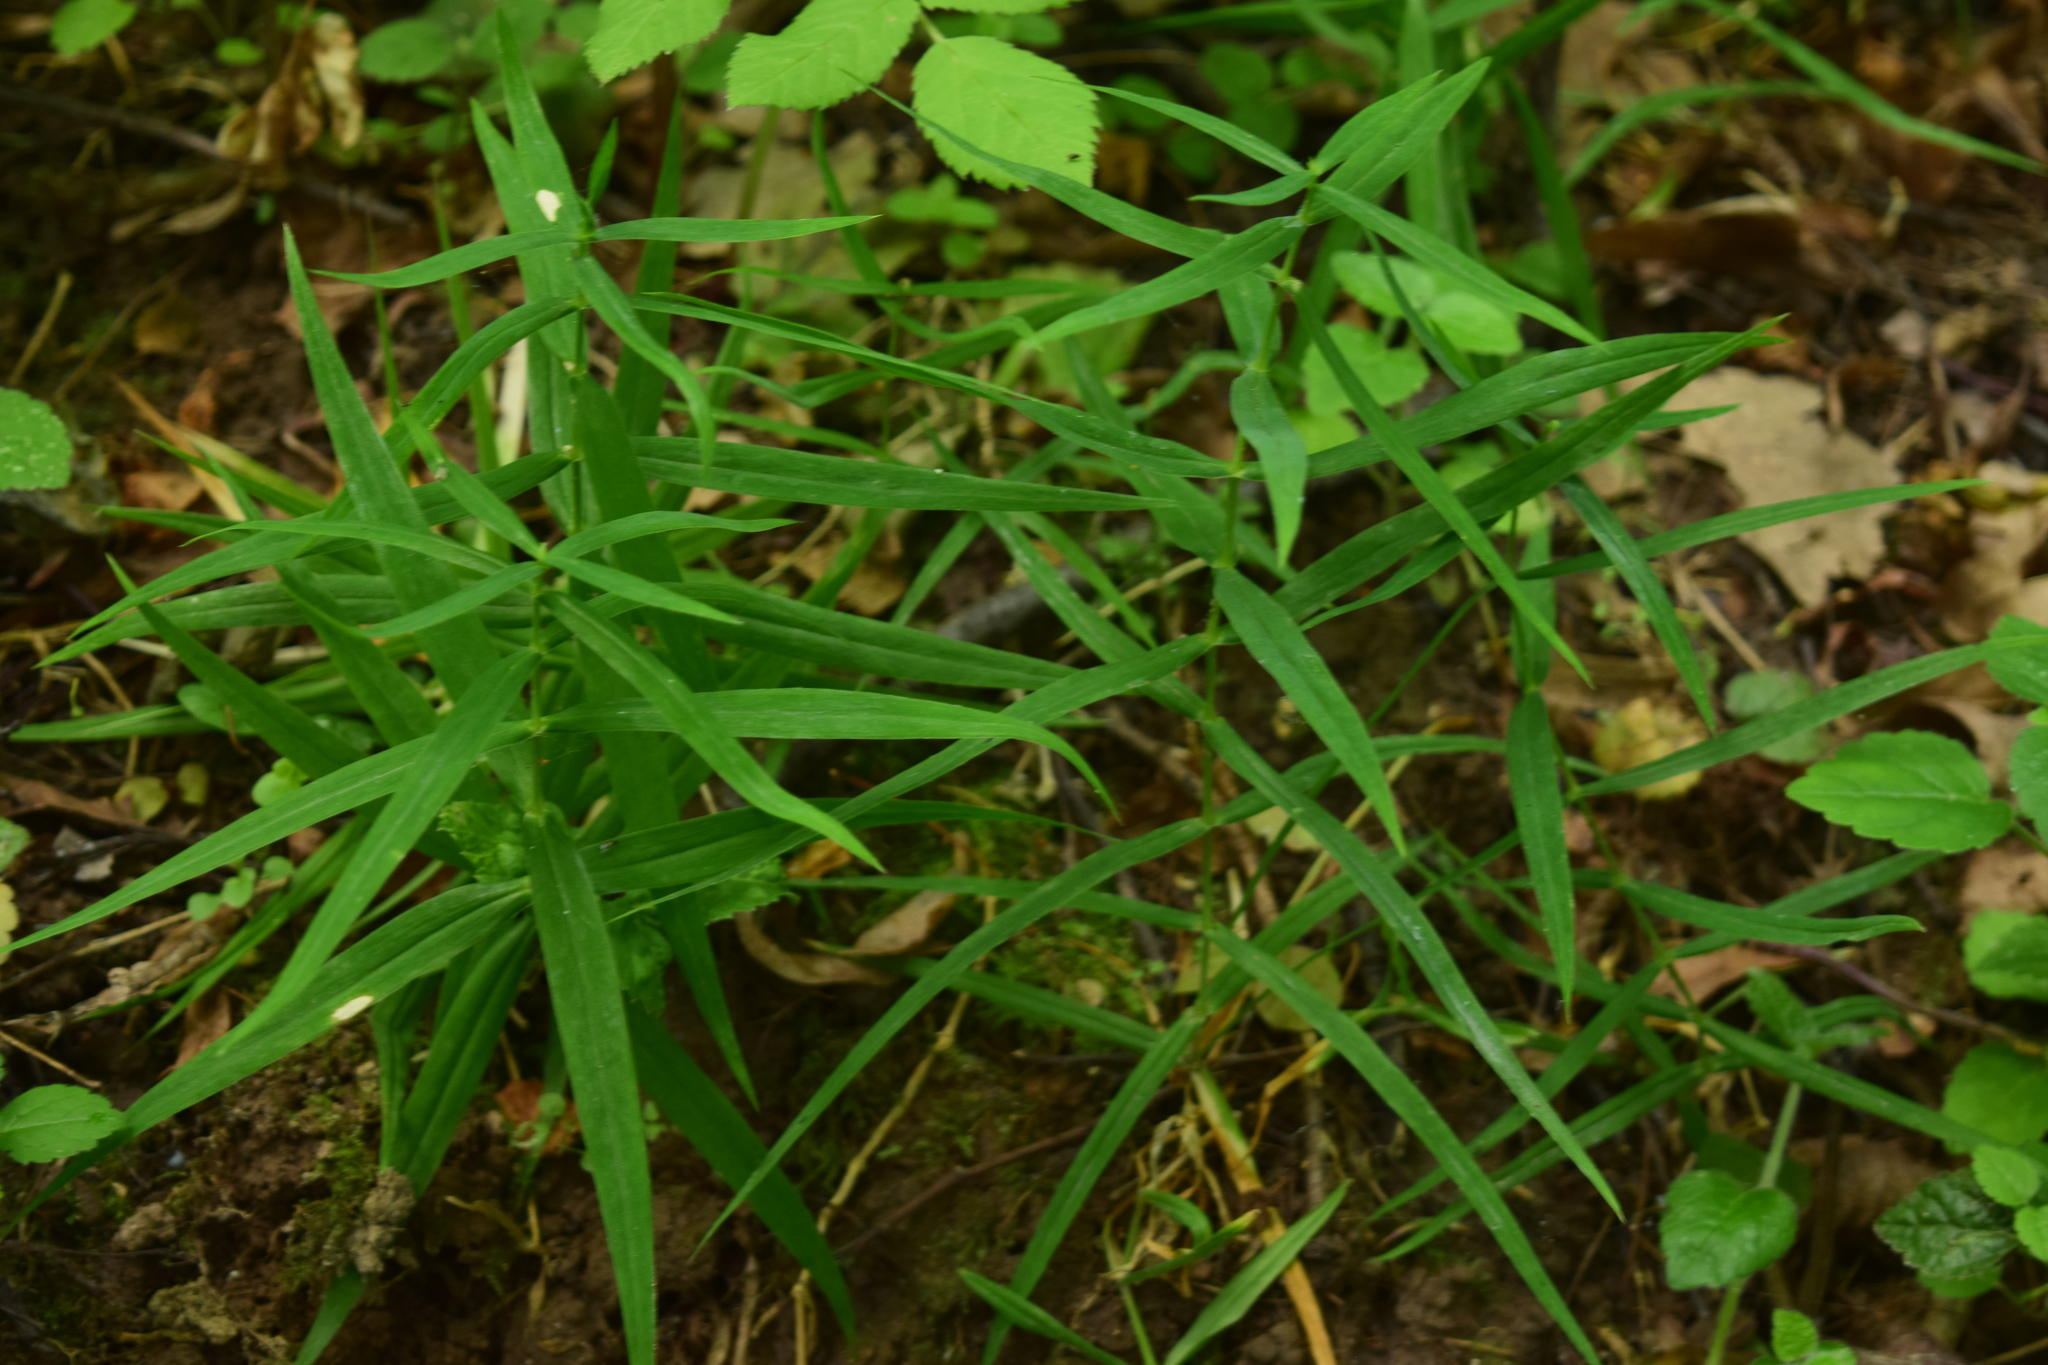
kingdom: Plantae
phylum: Tracheophyta
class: Magnoliopsida
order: Caryophyllales
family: Caryophyllaceae
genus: Rabelera
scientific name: Rabelera holostea
